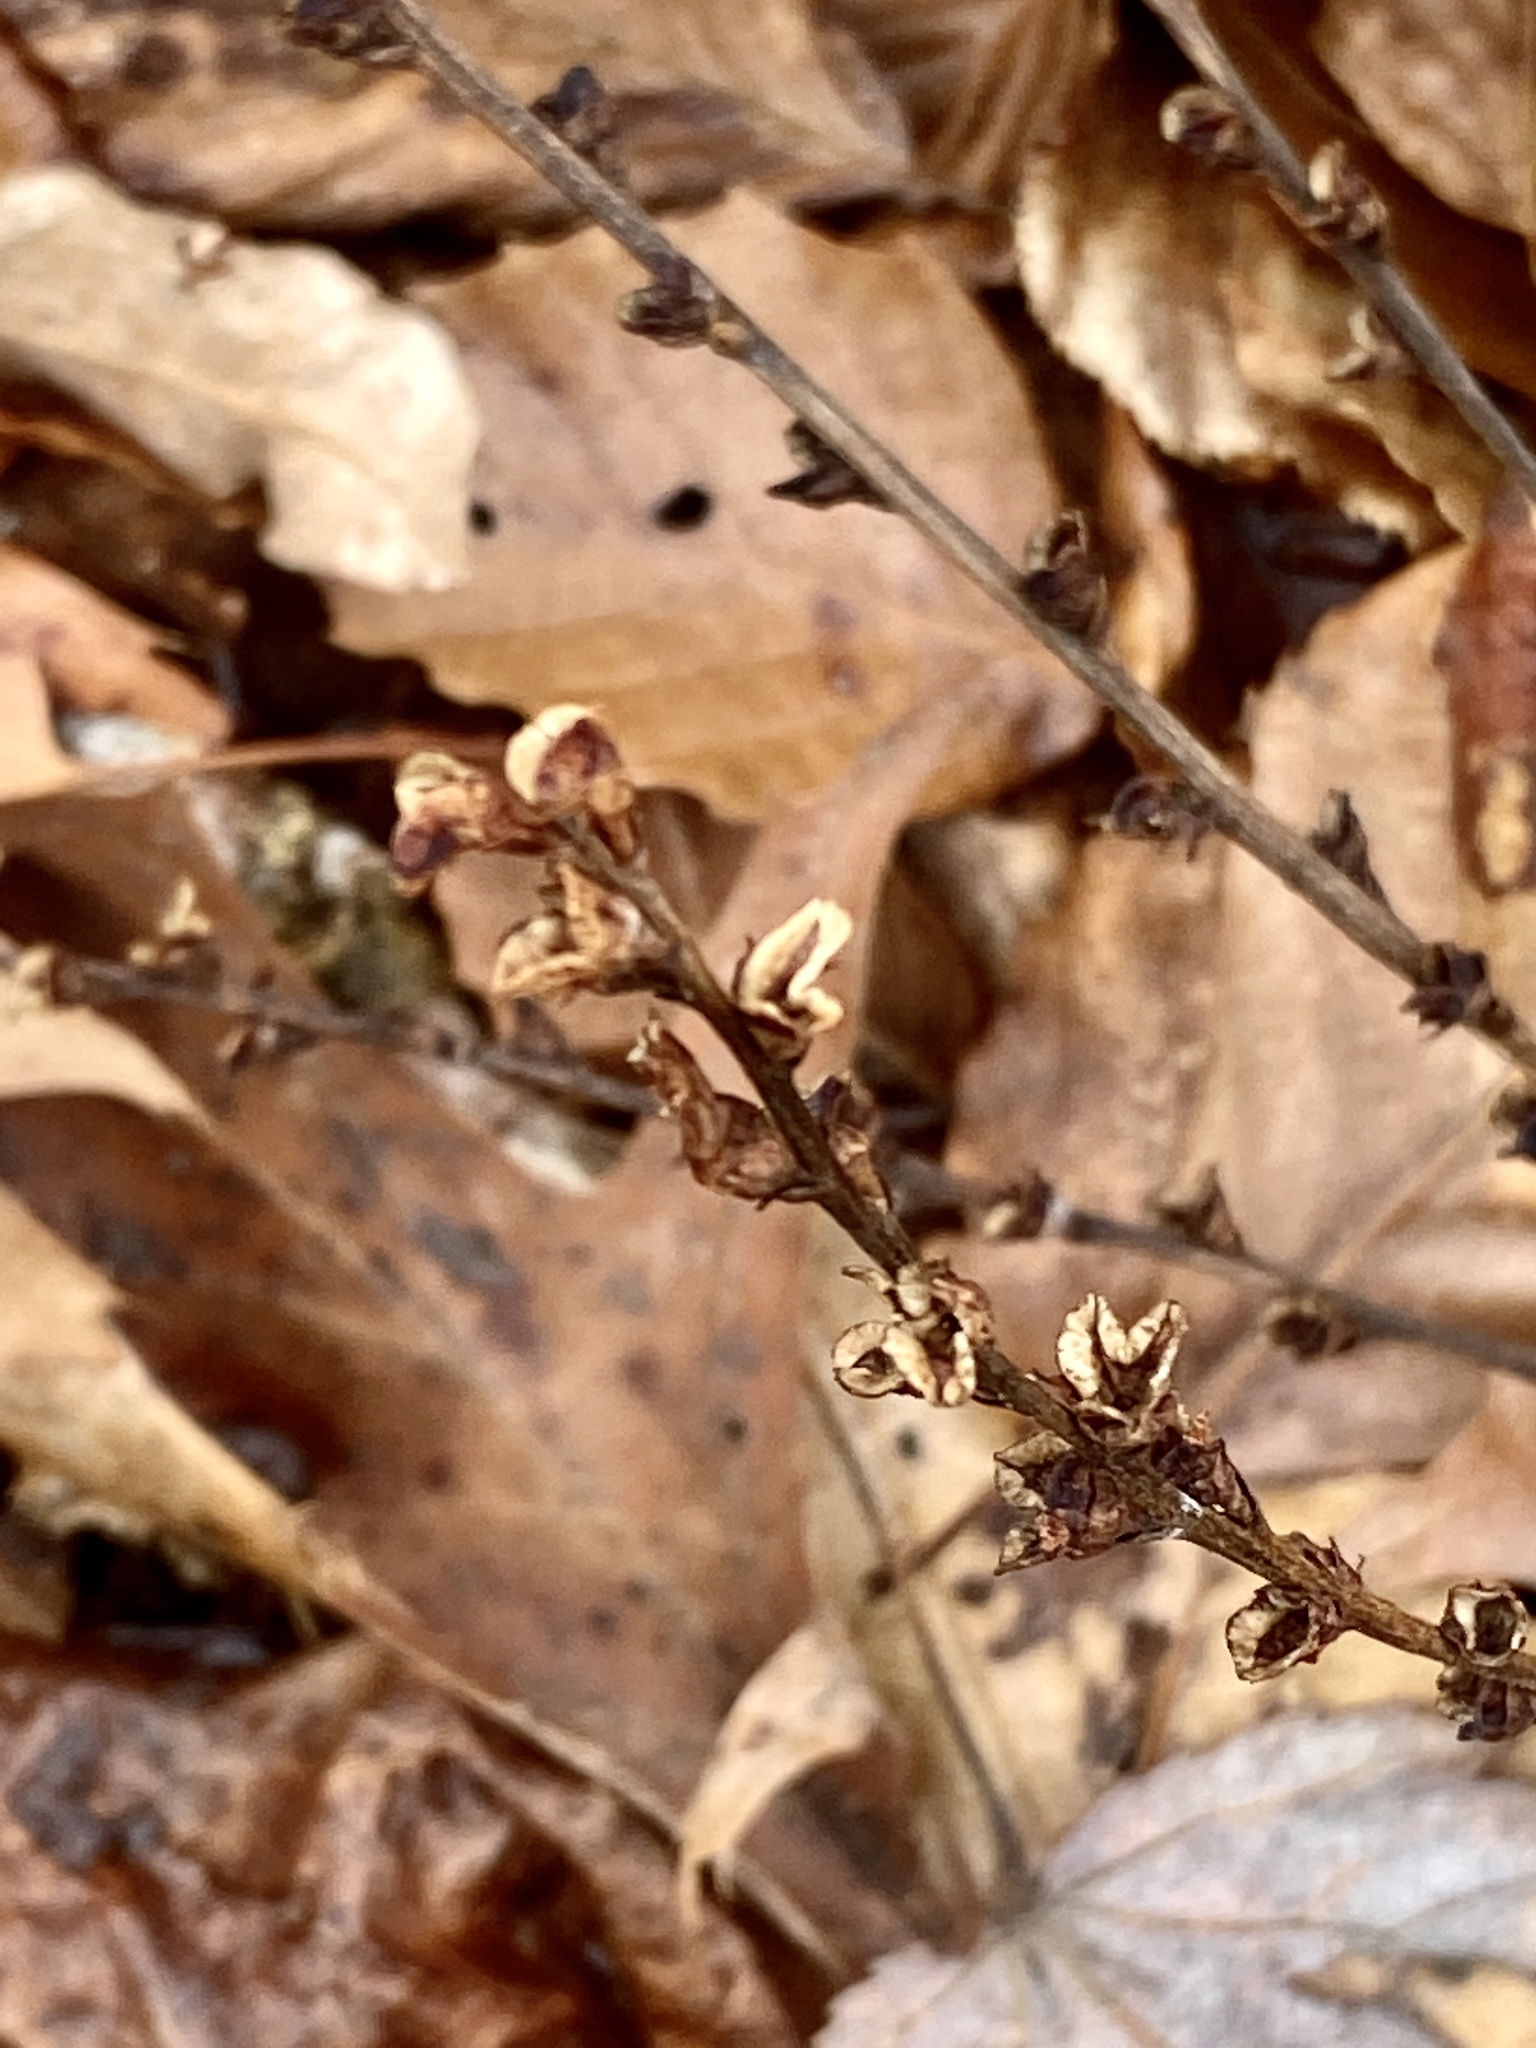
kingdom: Plantae
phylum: Tracheophyta
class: Magnoliopsida
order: Lamiales
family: Orobanchaceae
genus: Epifagus
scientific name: Epifagus virginiana
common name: Beechdrops
